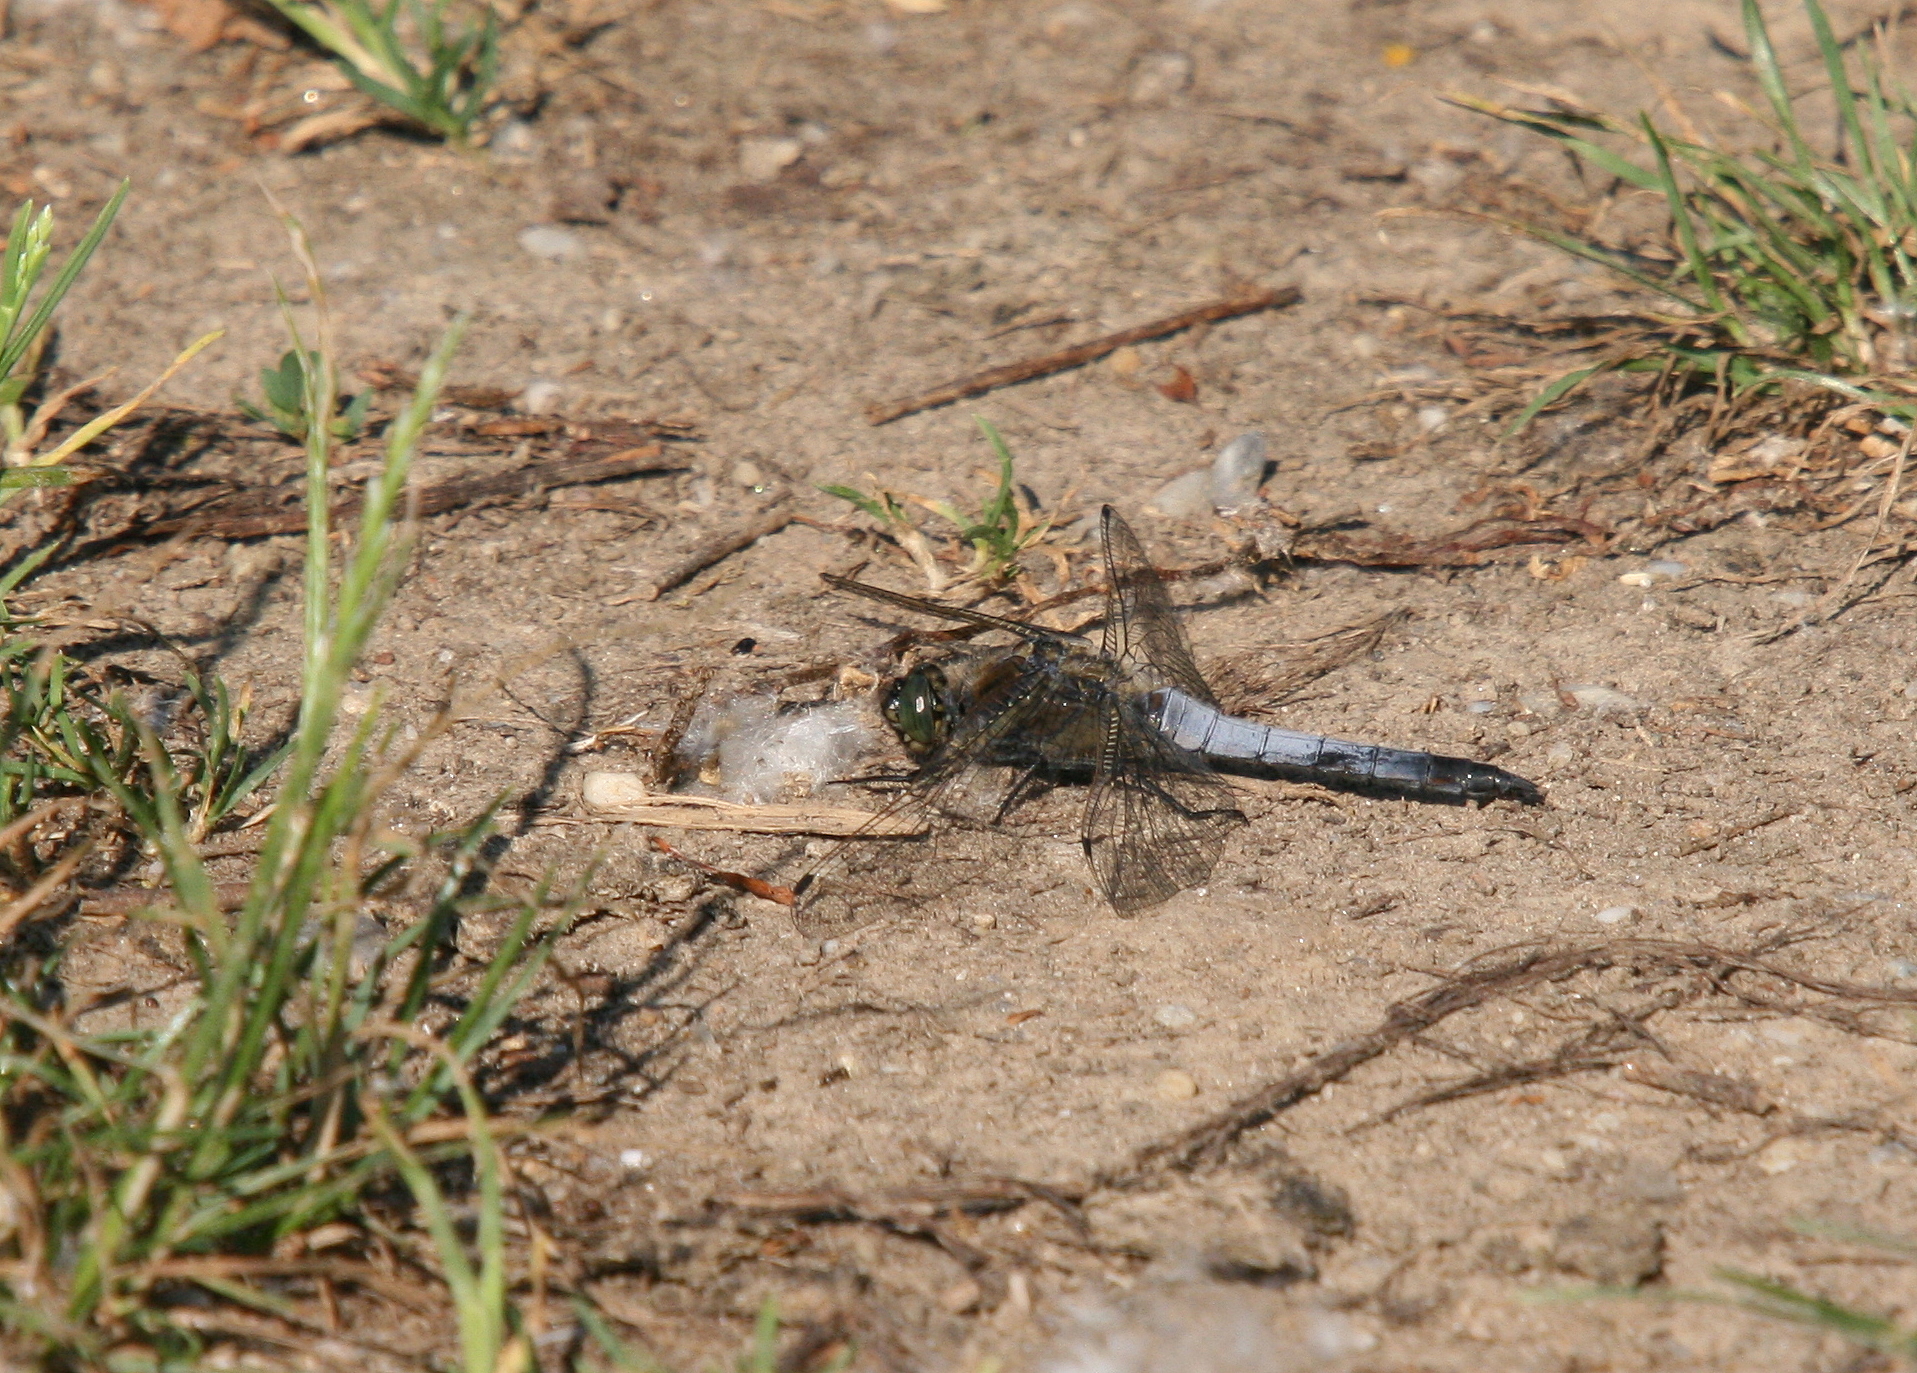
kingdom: Animalia
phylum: Arthropoda
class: Insecta
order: Odonata
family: Libellulidae
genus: Orthetrum
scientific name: Orthetrum cancellatum
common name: Black-tailed skimmer
